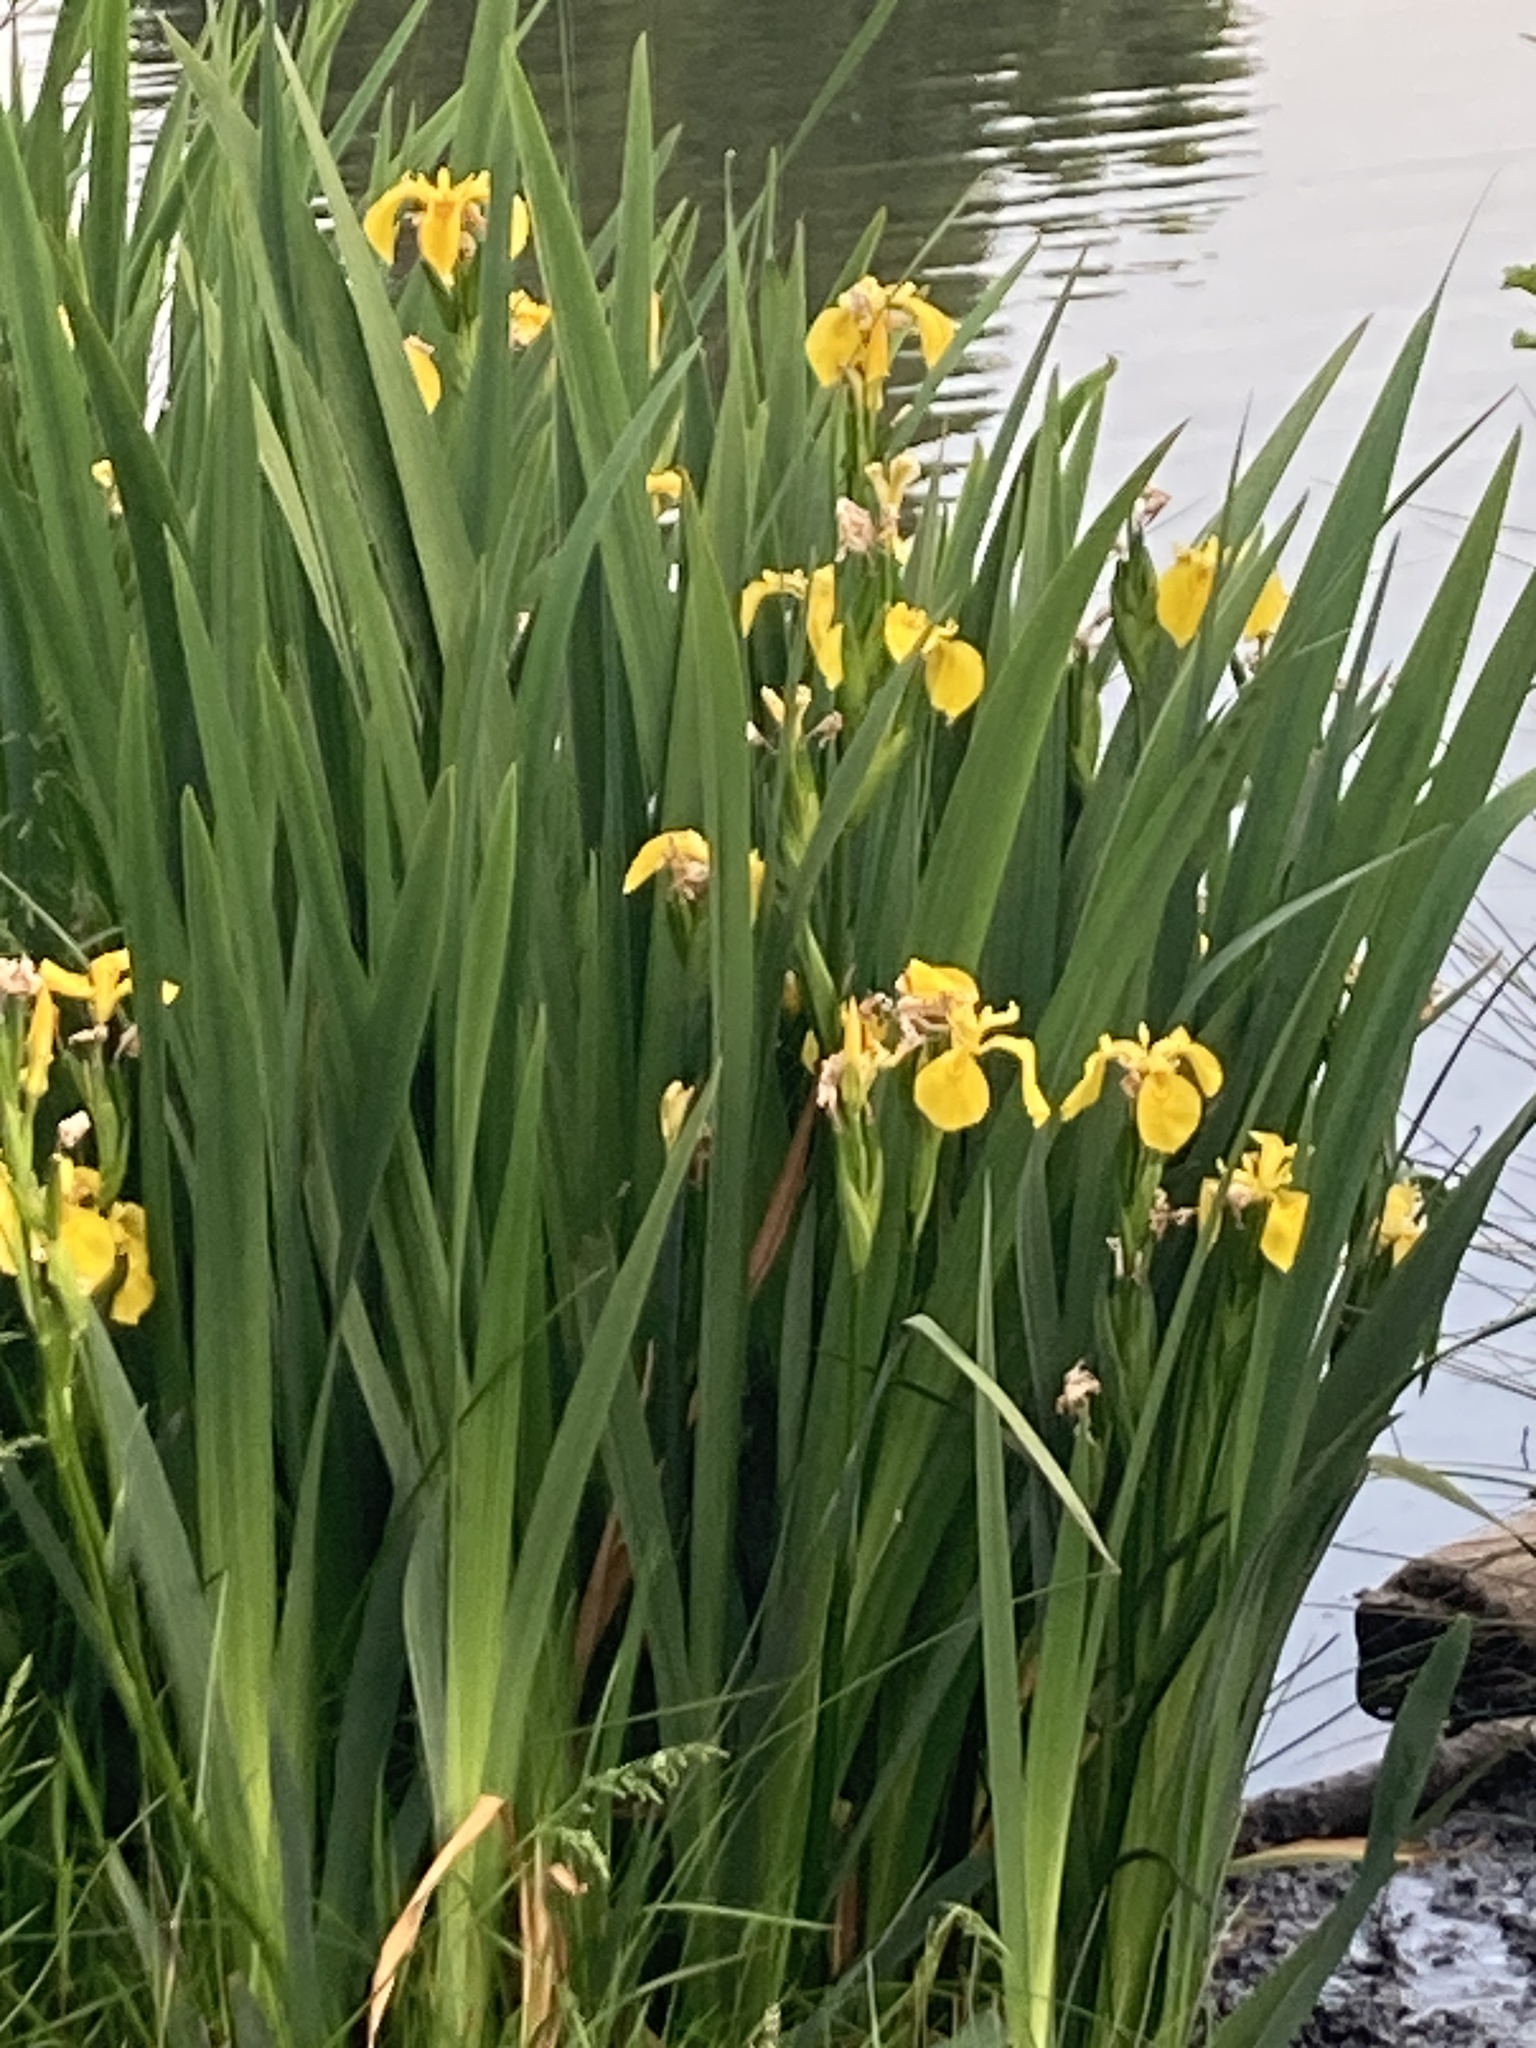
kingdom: Plantae
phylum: Tracheophyta
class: Liliopsida
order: Asparagales
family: Iridaceae
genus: Iris
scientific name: Iris pseudacorus
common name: Yellow flag
